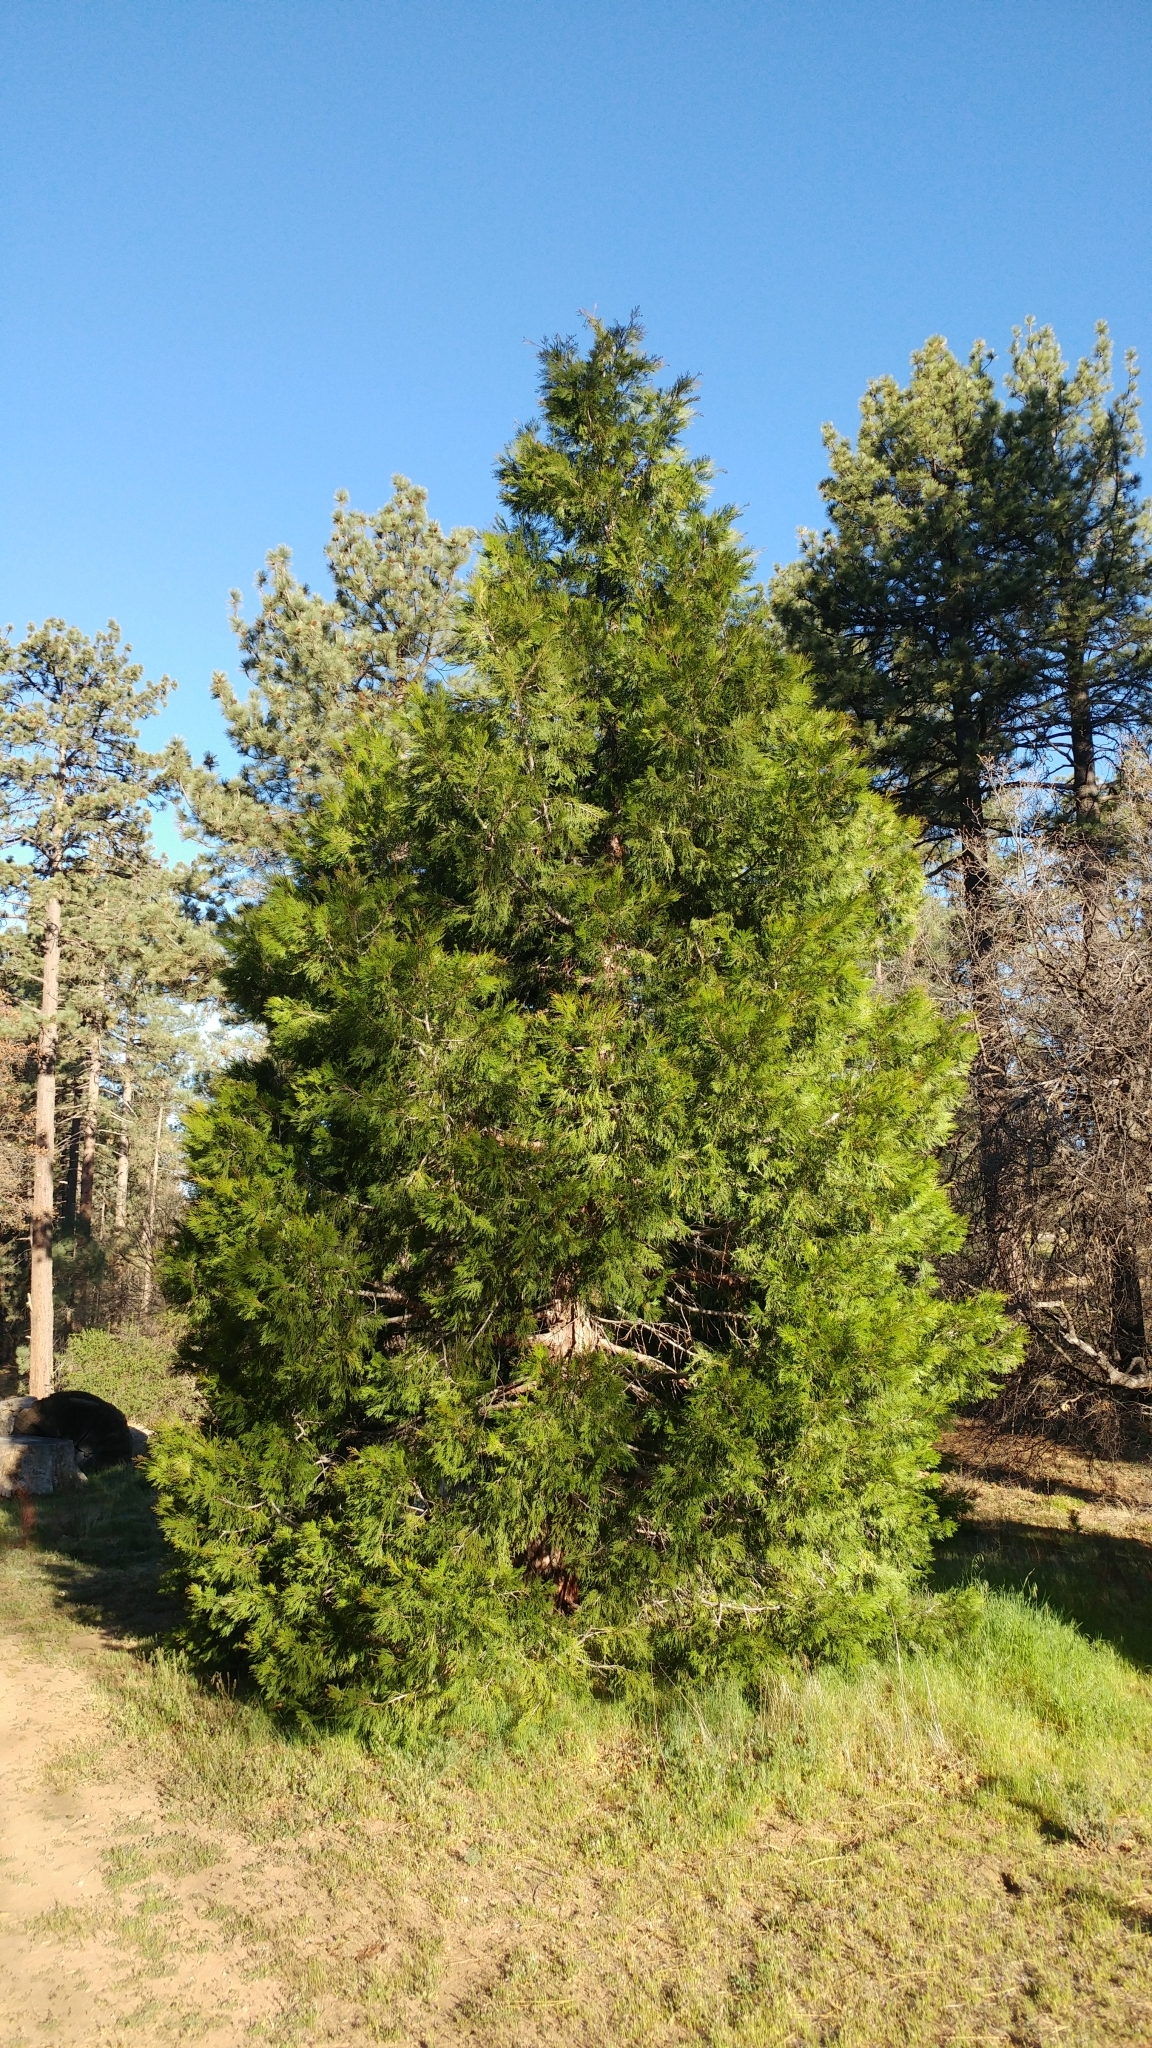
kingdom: Plantae
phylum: Tracheophyta
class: Pinopsida
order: Pinales
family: Cupressaceae
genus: Calocedrus
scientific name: Calocedrus decurrens
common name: Californian incense-cedar
